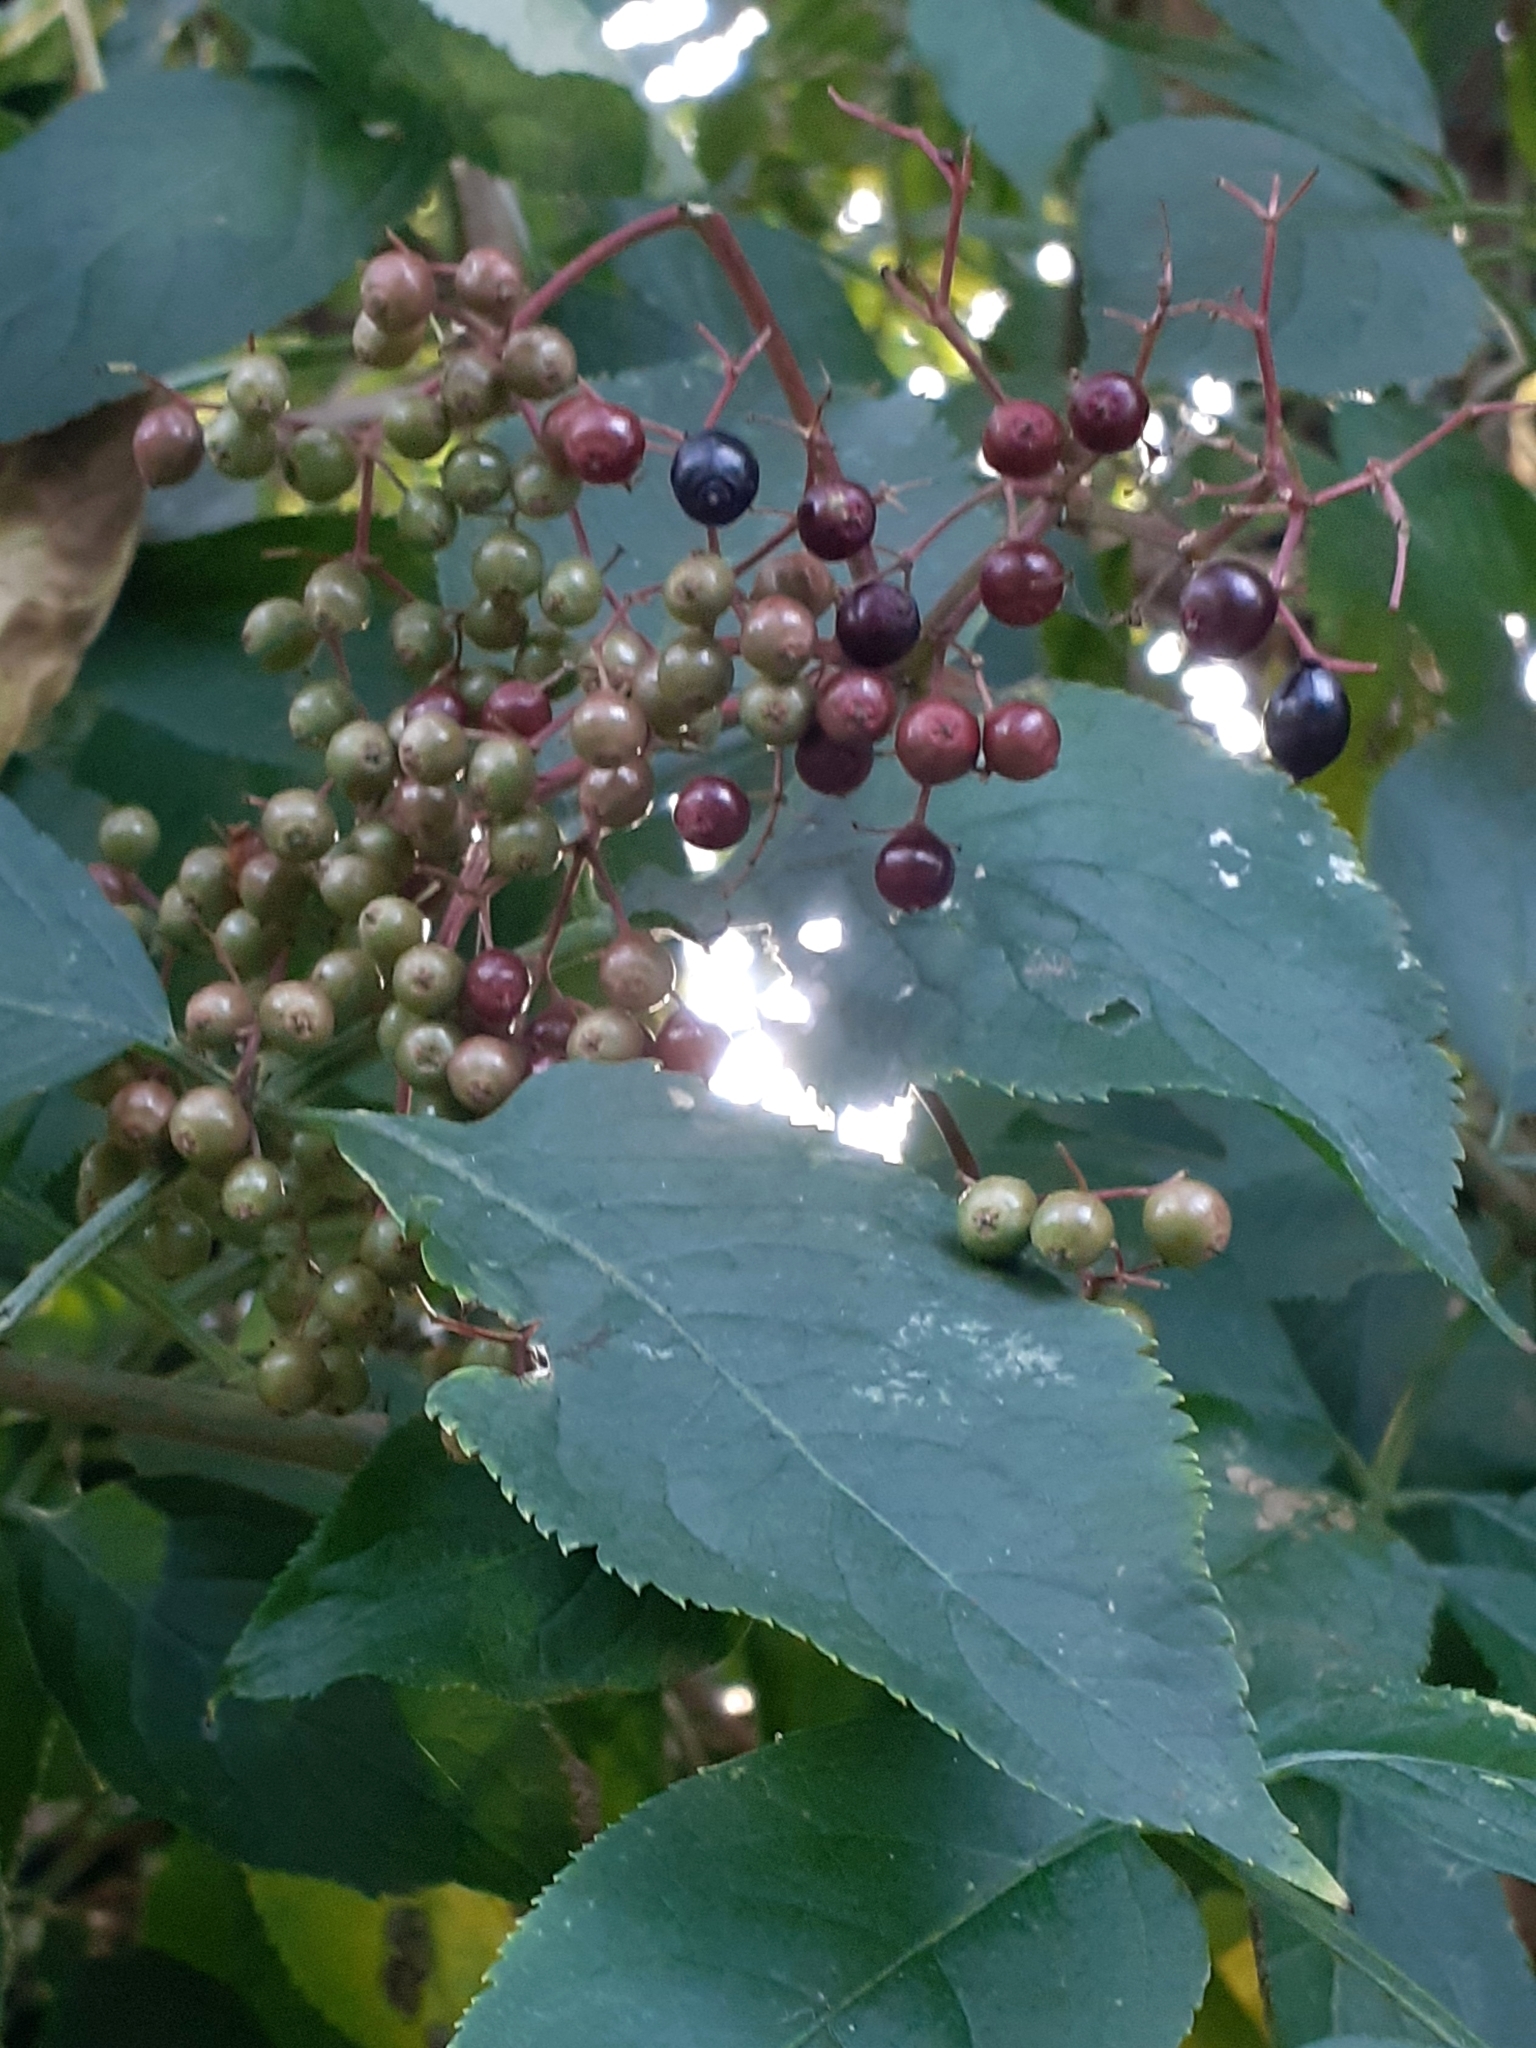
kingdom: Plantae
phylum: Tracheophyta
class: Magnoliopsida
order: Dipsacales
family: Viburnaceae
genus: Sambucus
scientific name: Sambucus nigra
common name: Elder
